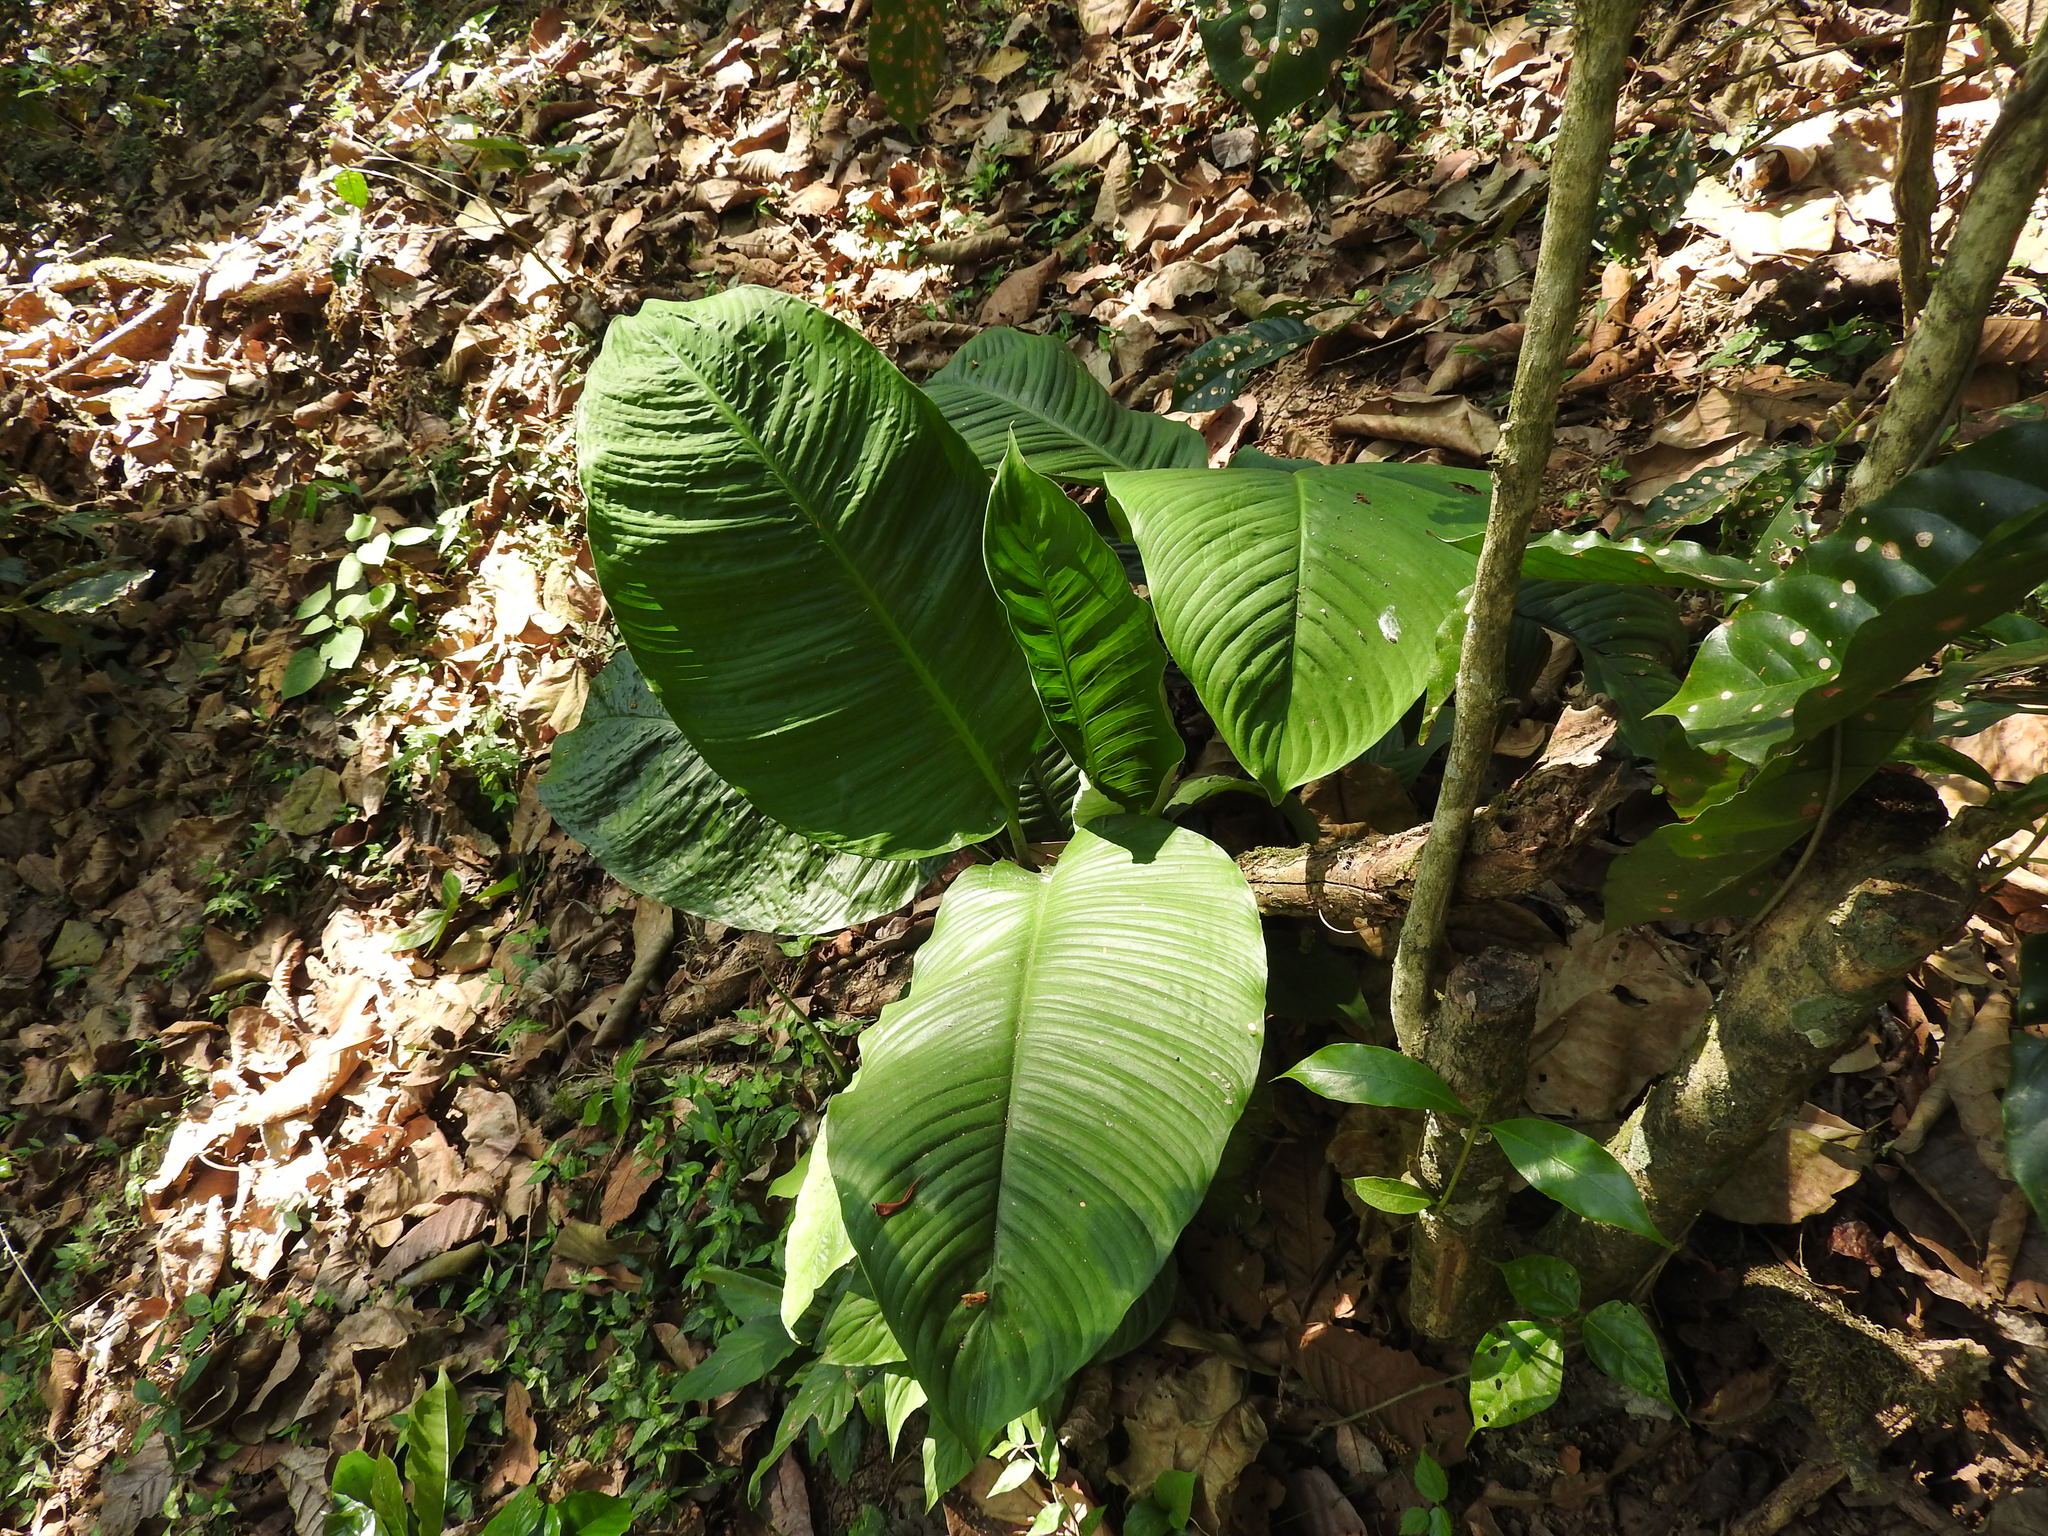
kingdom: Plantae
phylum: Tracheophyta
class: Liliopsida
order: Alismatales
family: Araceae
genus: Spathiphyllum
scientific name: Spathiphyllum friedrichsthalii
